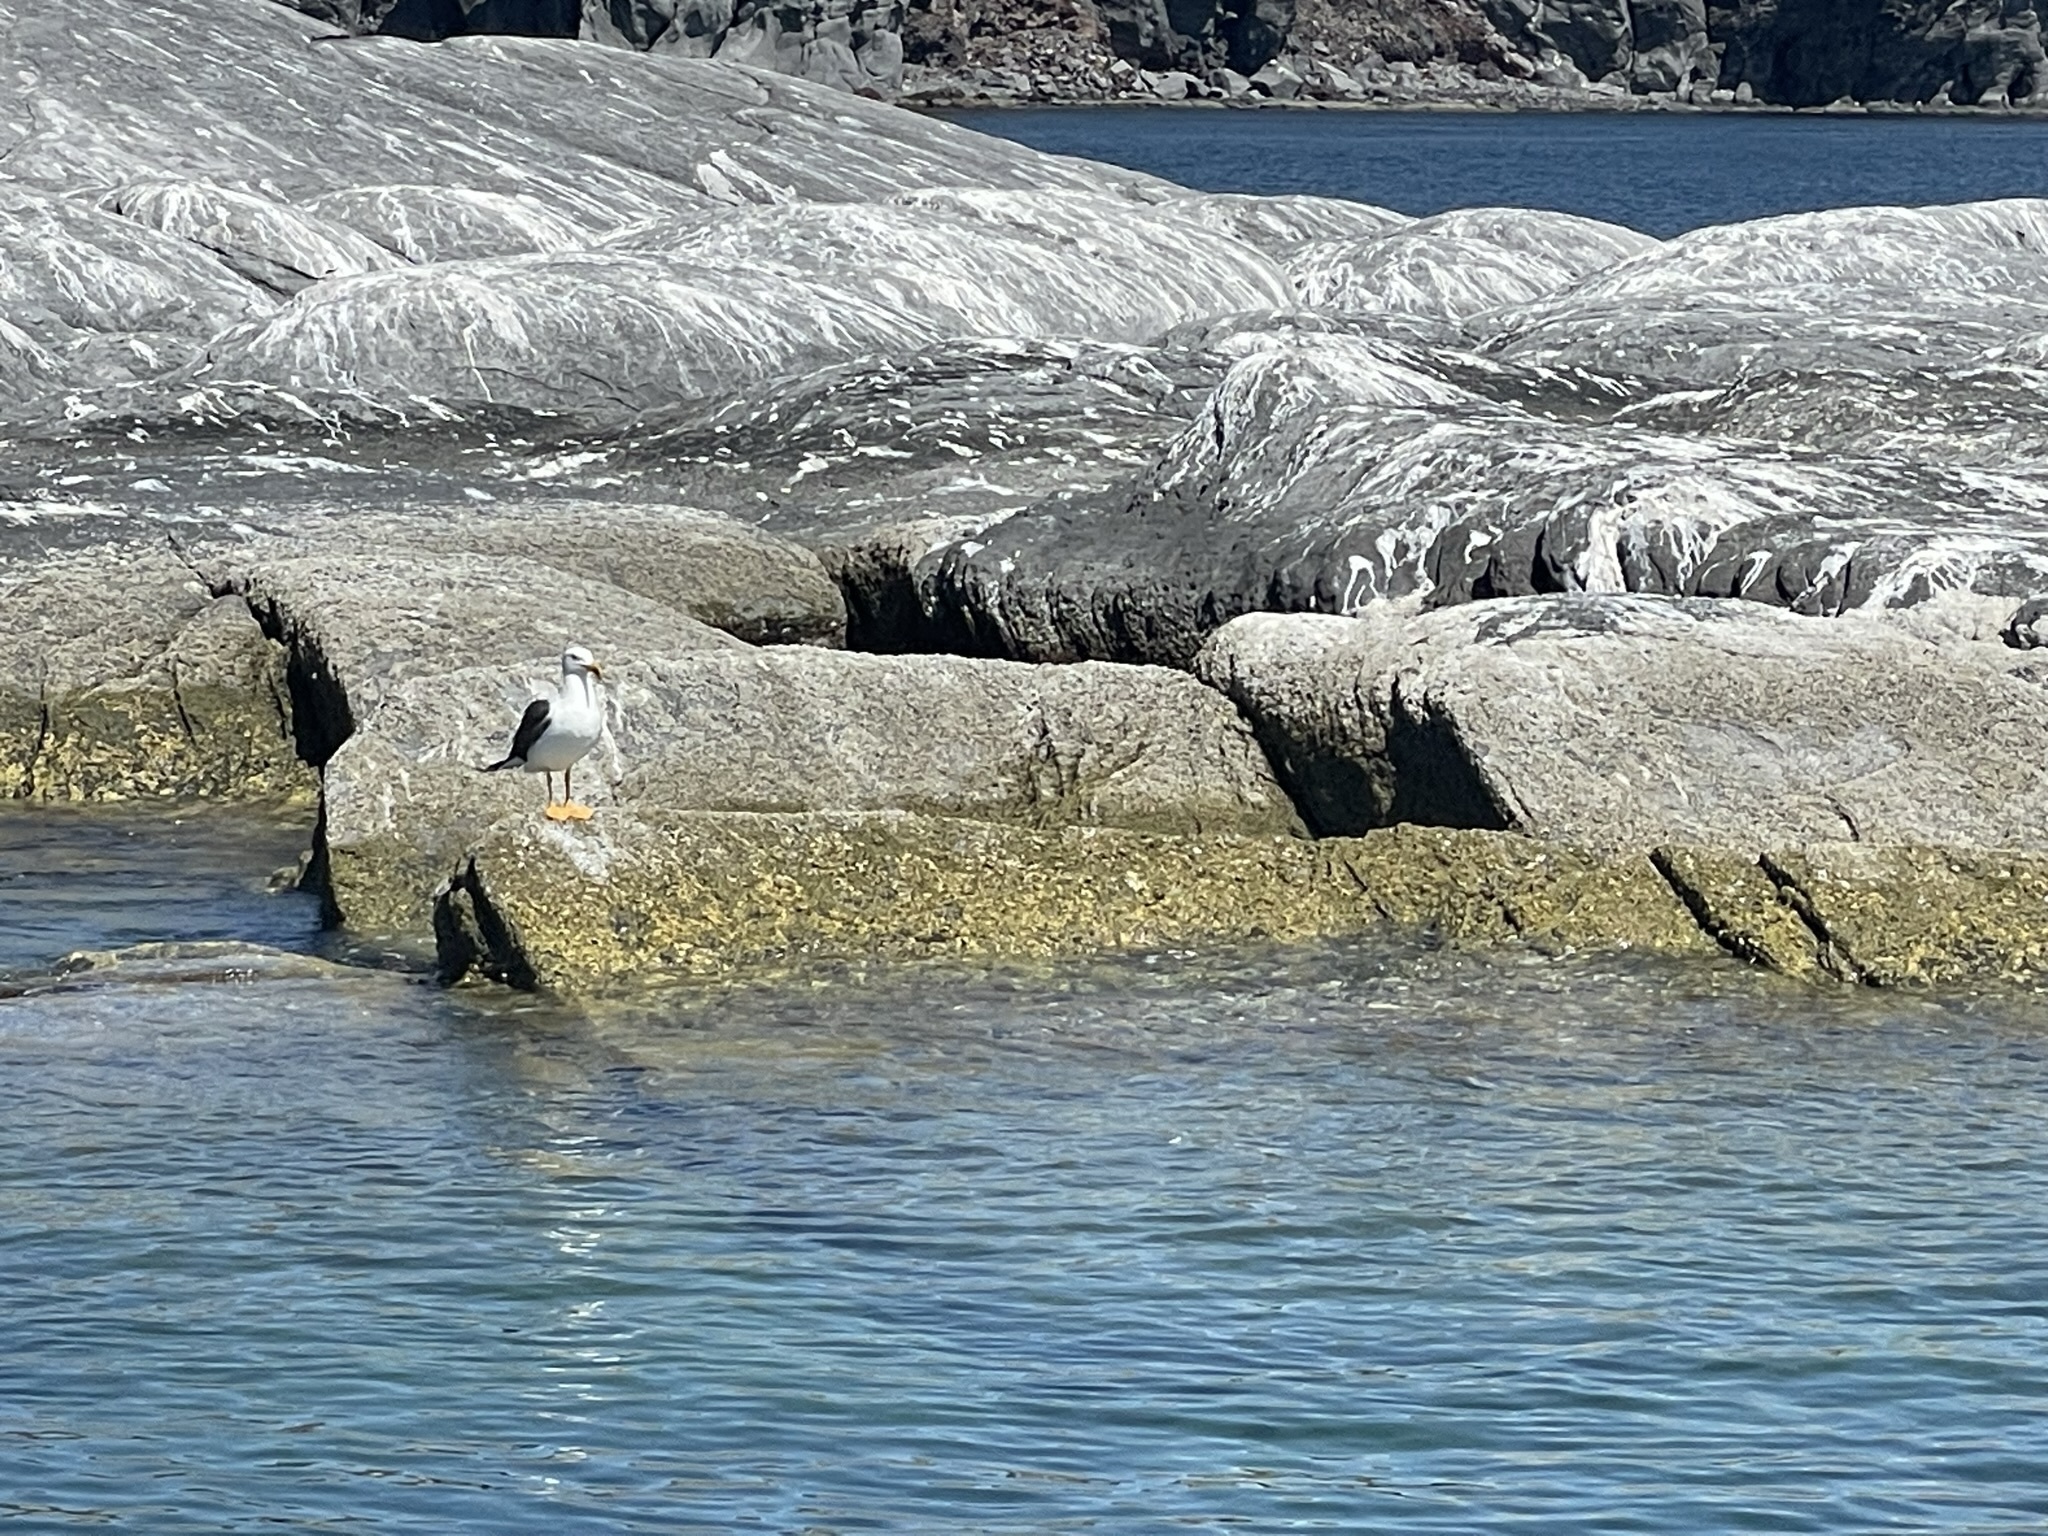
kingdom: Animalia
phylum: Chordata
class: Aves
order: Charadriiformes
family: Laridae
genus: Larus
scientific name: Larus livens
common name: Yellow-footed gull
